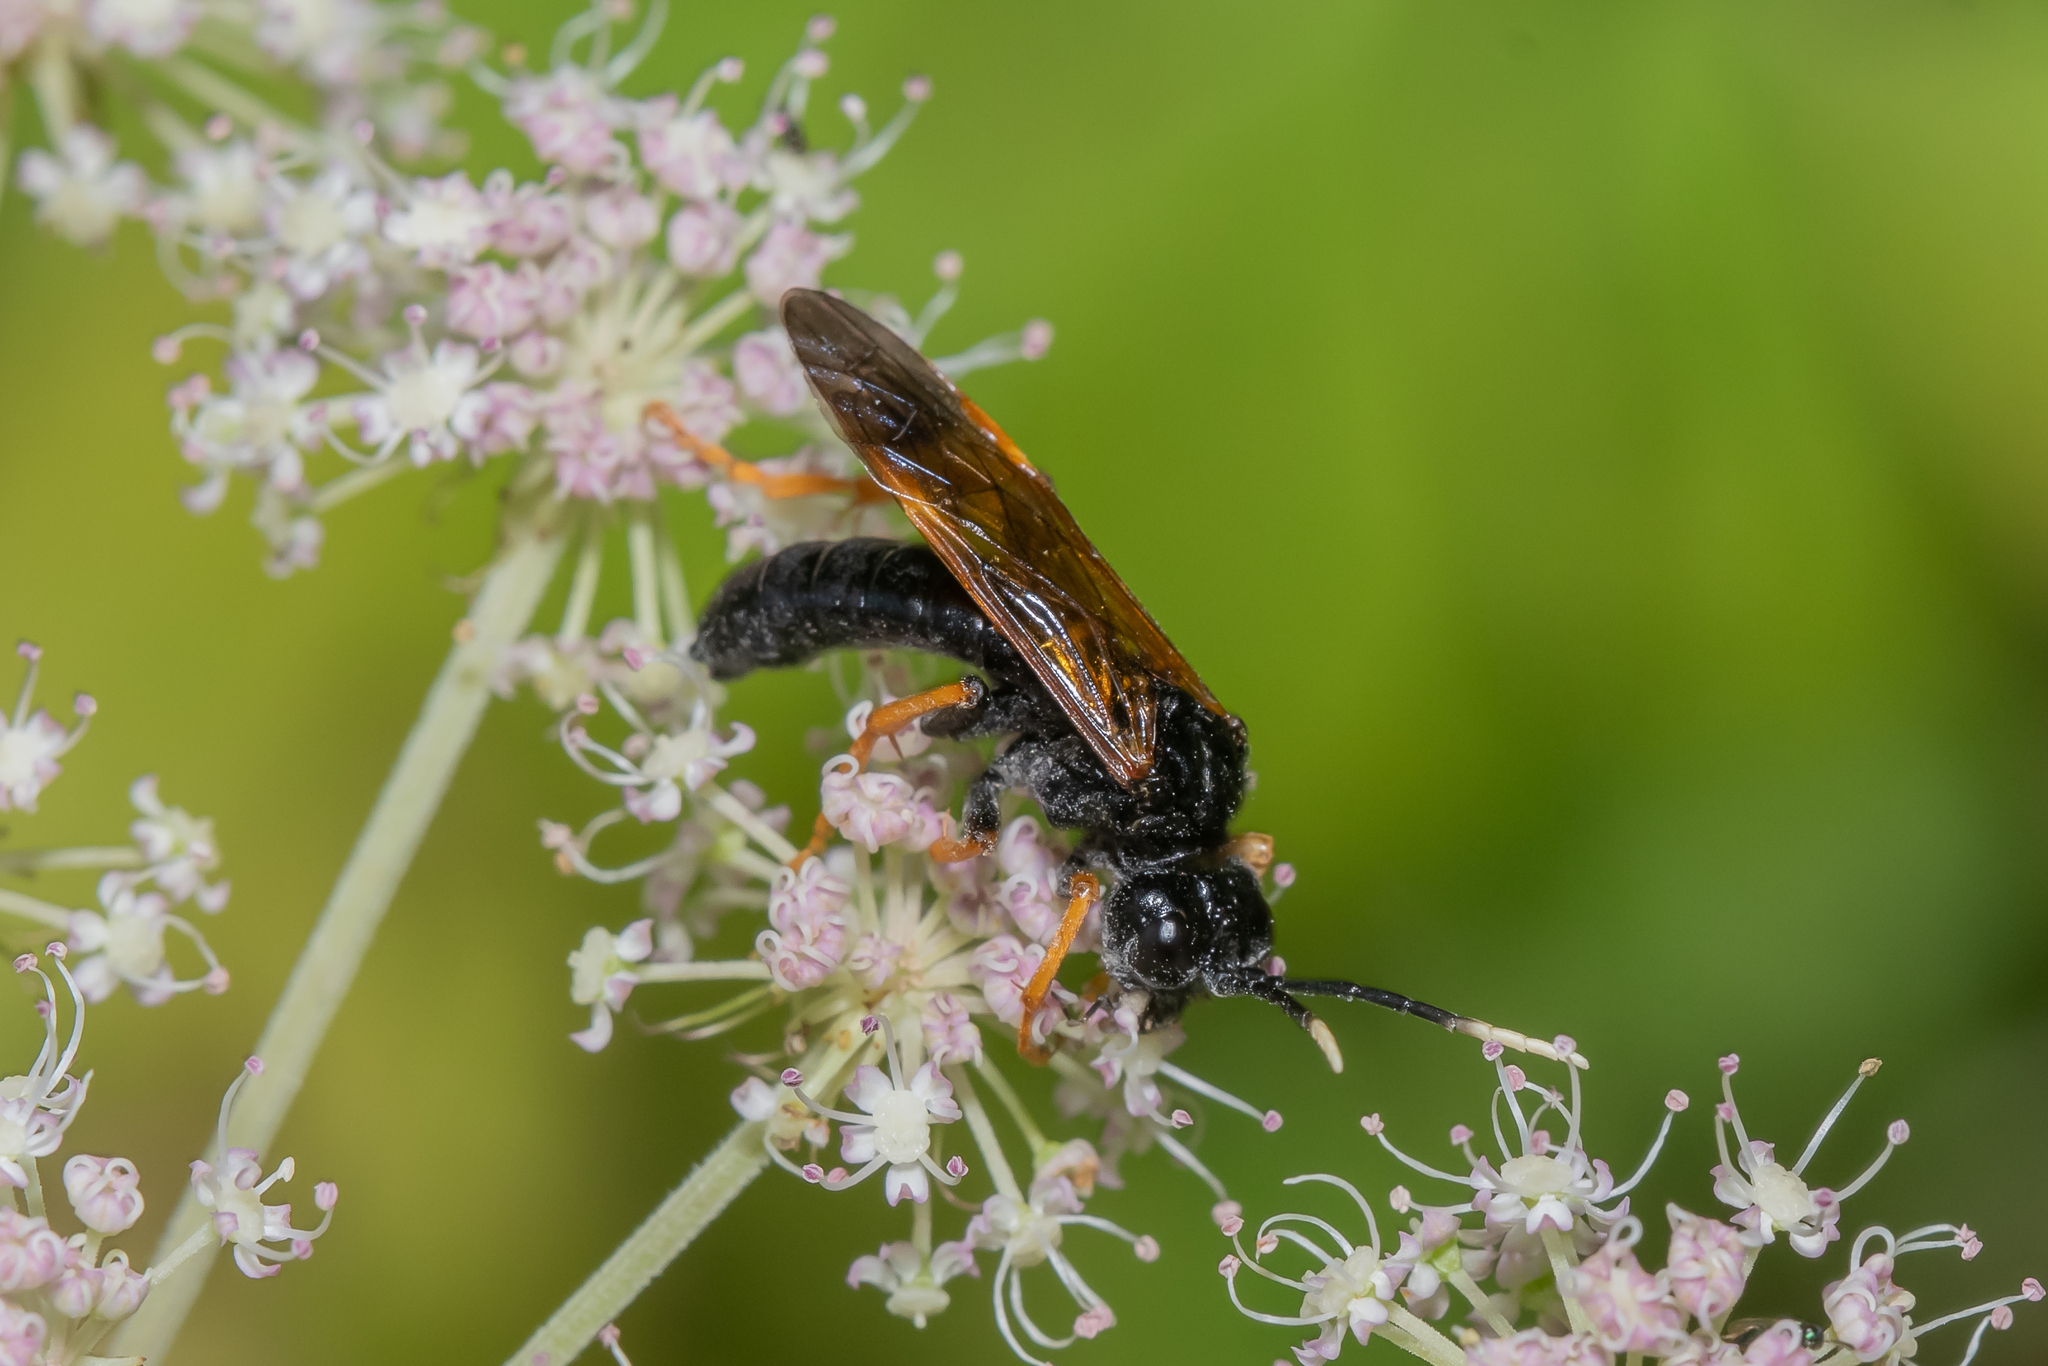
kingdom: Animalia
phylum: Arthropoda
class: Insecta
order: Hymenoptera
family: Tenthredinidae
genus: Tenthredo
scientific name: Tenthredo crassa
